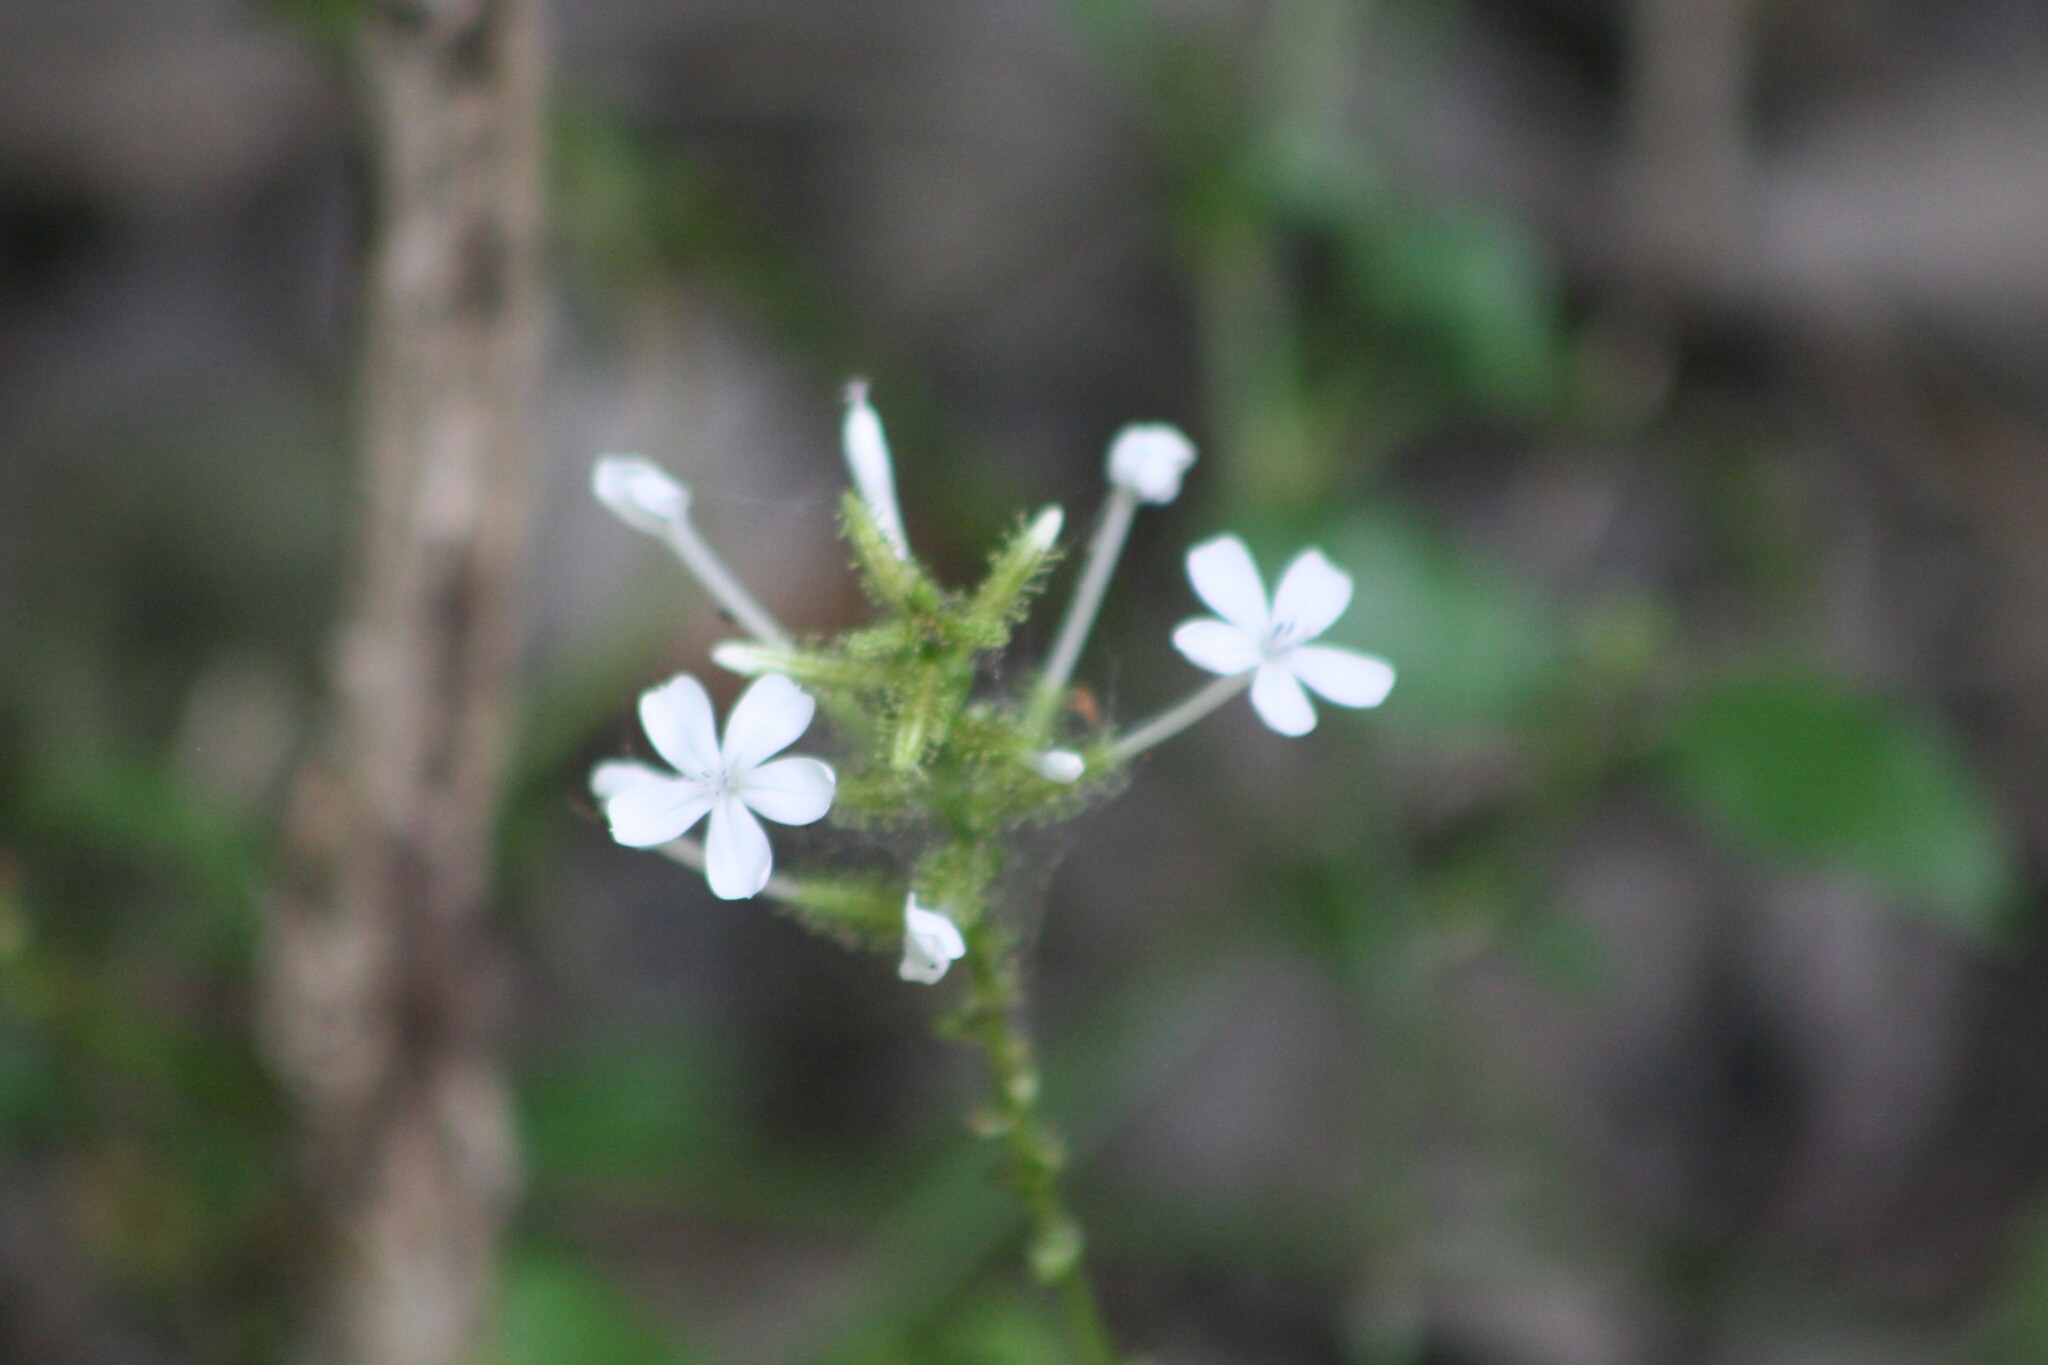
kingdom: Plantae
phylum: Tracheophyta
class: Magnoliopsida
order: Caryophyllales
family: Plumbaginaceae
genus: Plumbago
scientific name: Plumbago zeylanica
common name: Doctorbush
